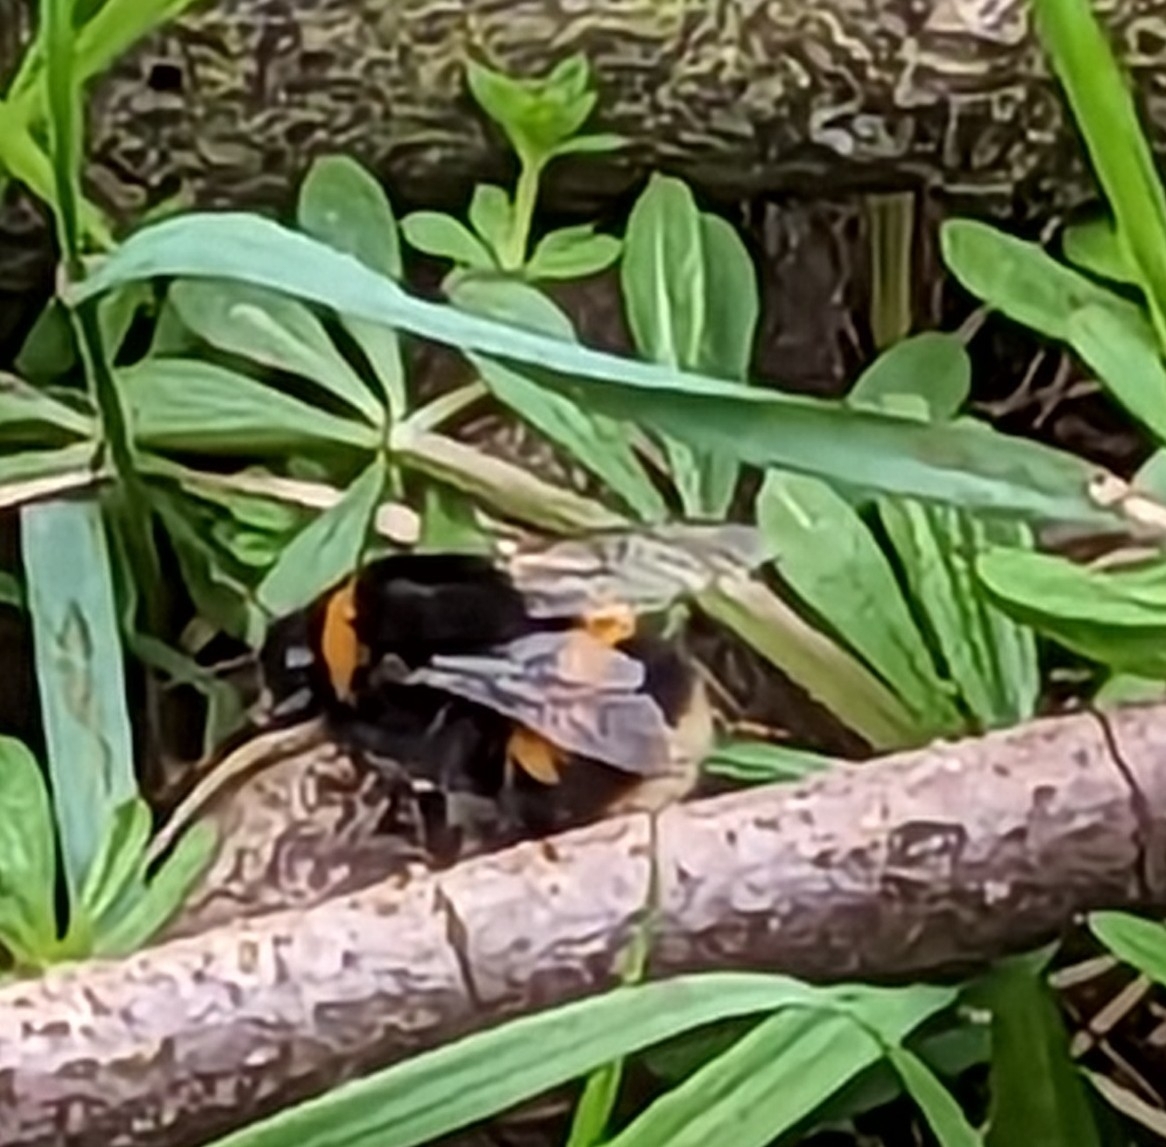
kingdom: Animalia
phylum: Arthropoda
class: Insecta
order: Hymenoptera
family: Apidae
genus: Bombus
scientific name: Bombus terrestris
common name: Buff-tailed bumblebee
